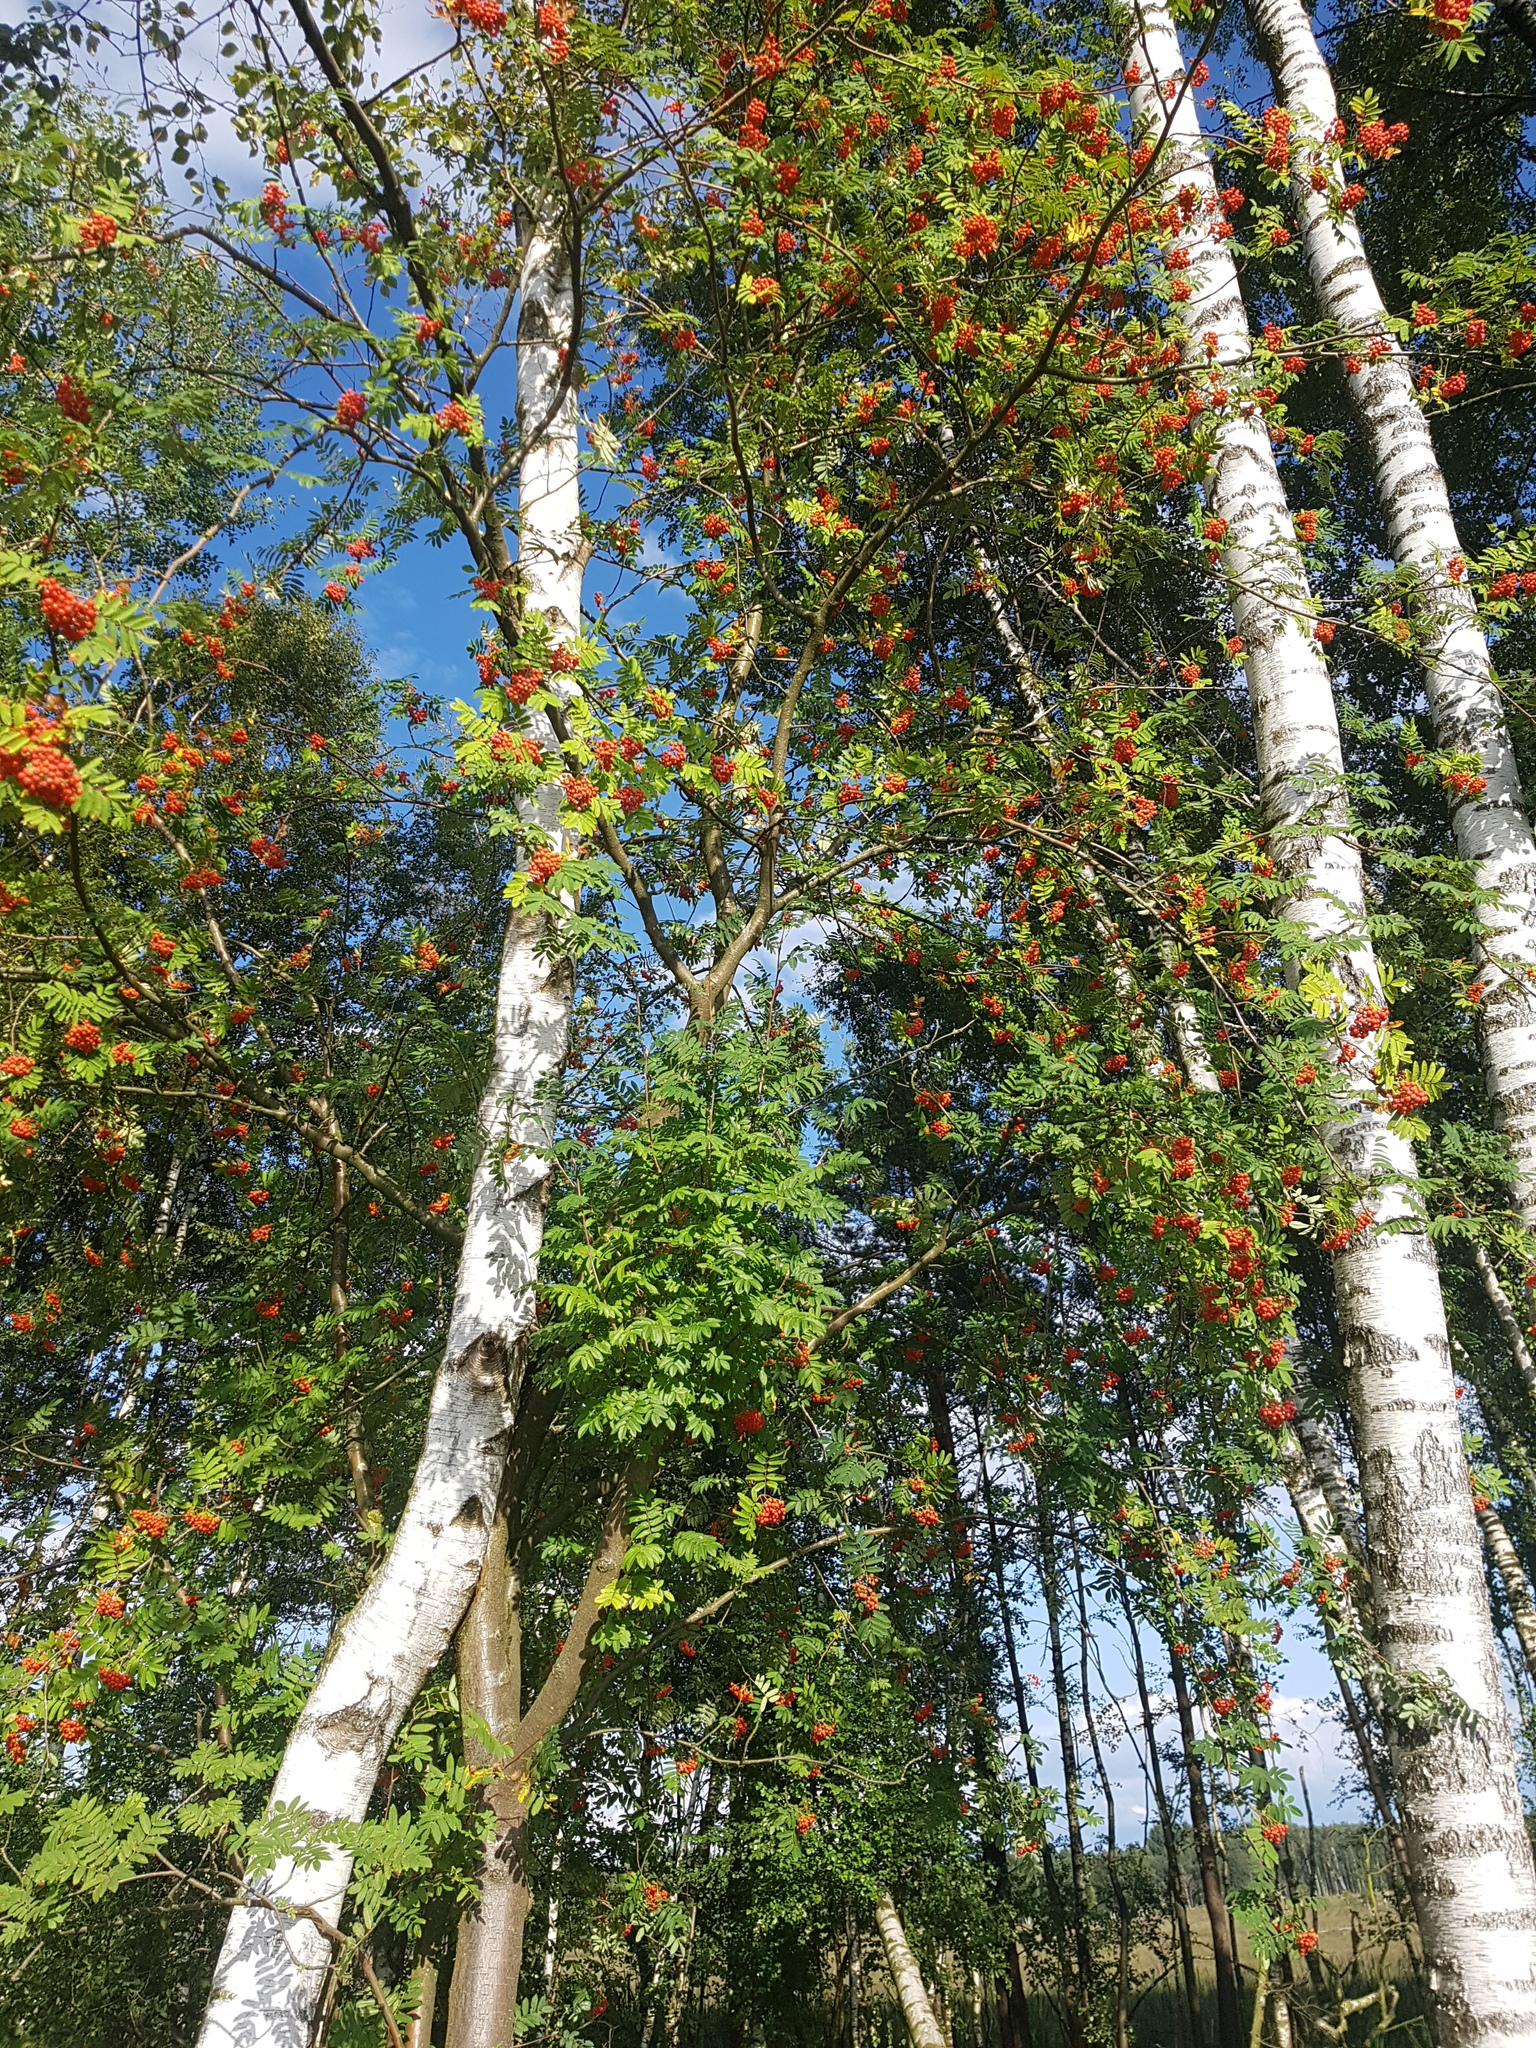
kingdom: Plantae
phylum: Tracheophyta
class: Magnoliopsida
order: Rosales
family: Rosaceae
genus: Sorbus
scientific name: Sorbus aucuparia
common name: Rowan
